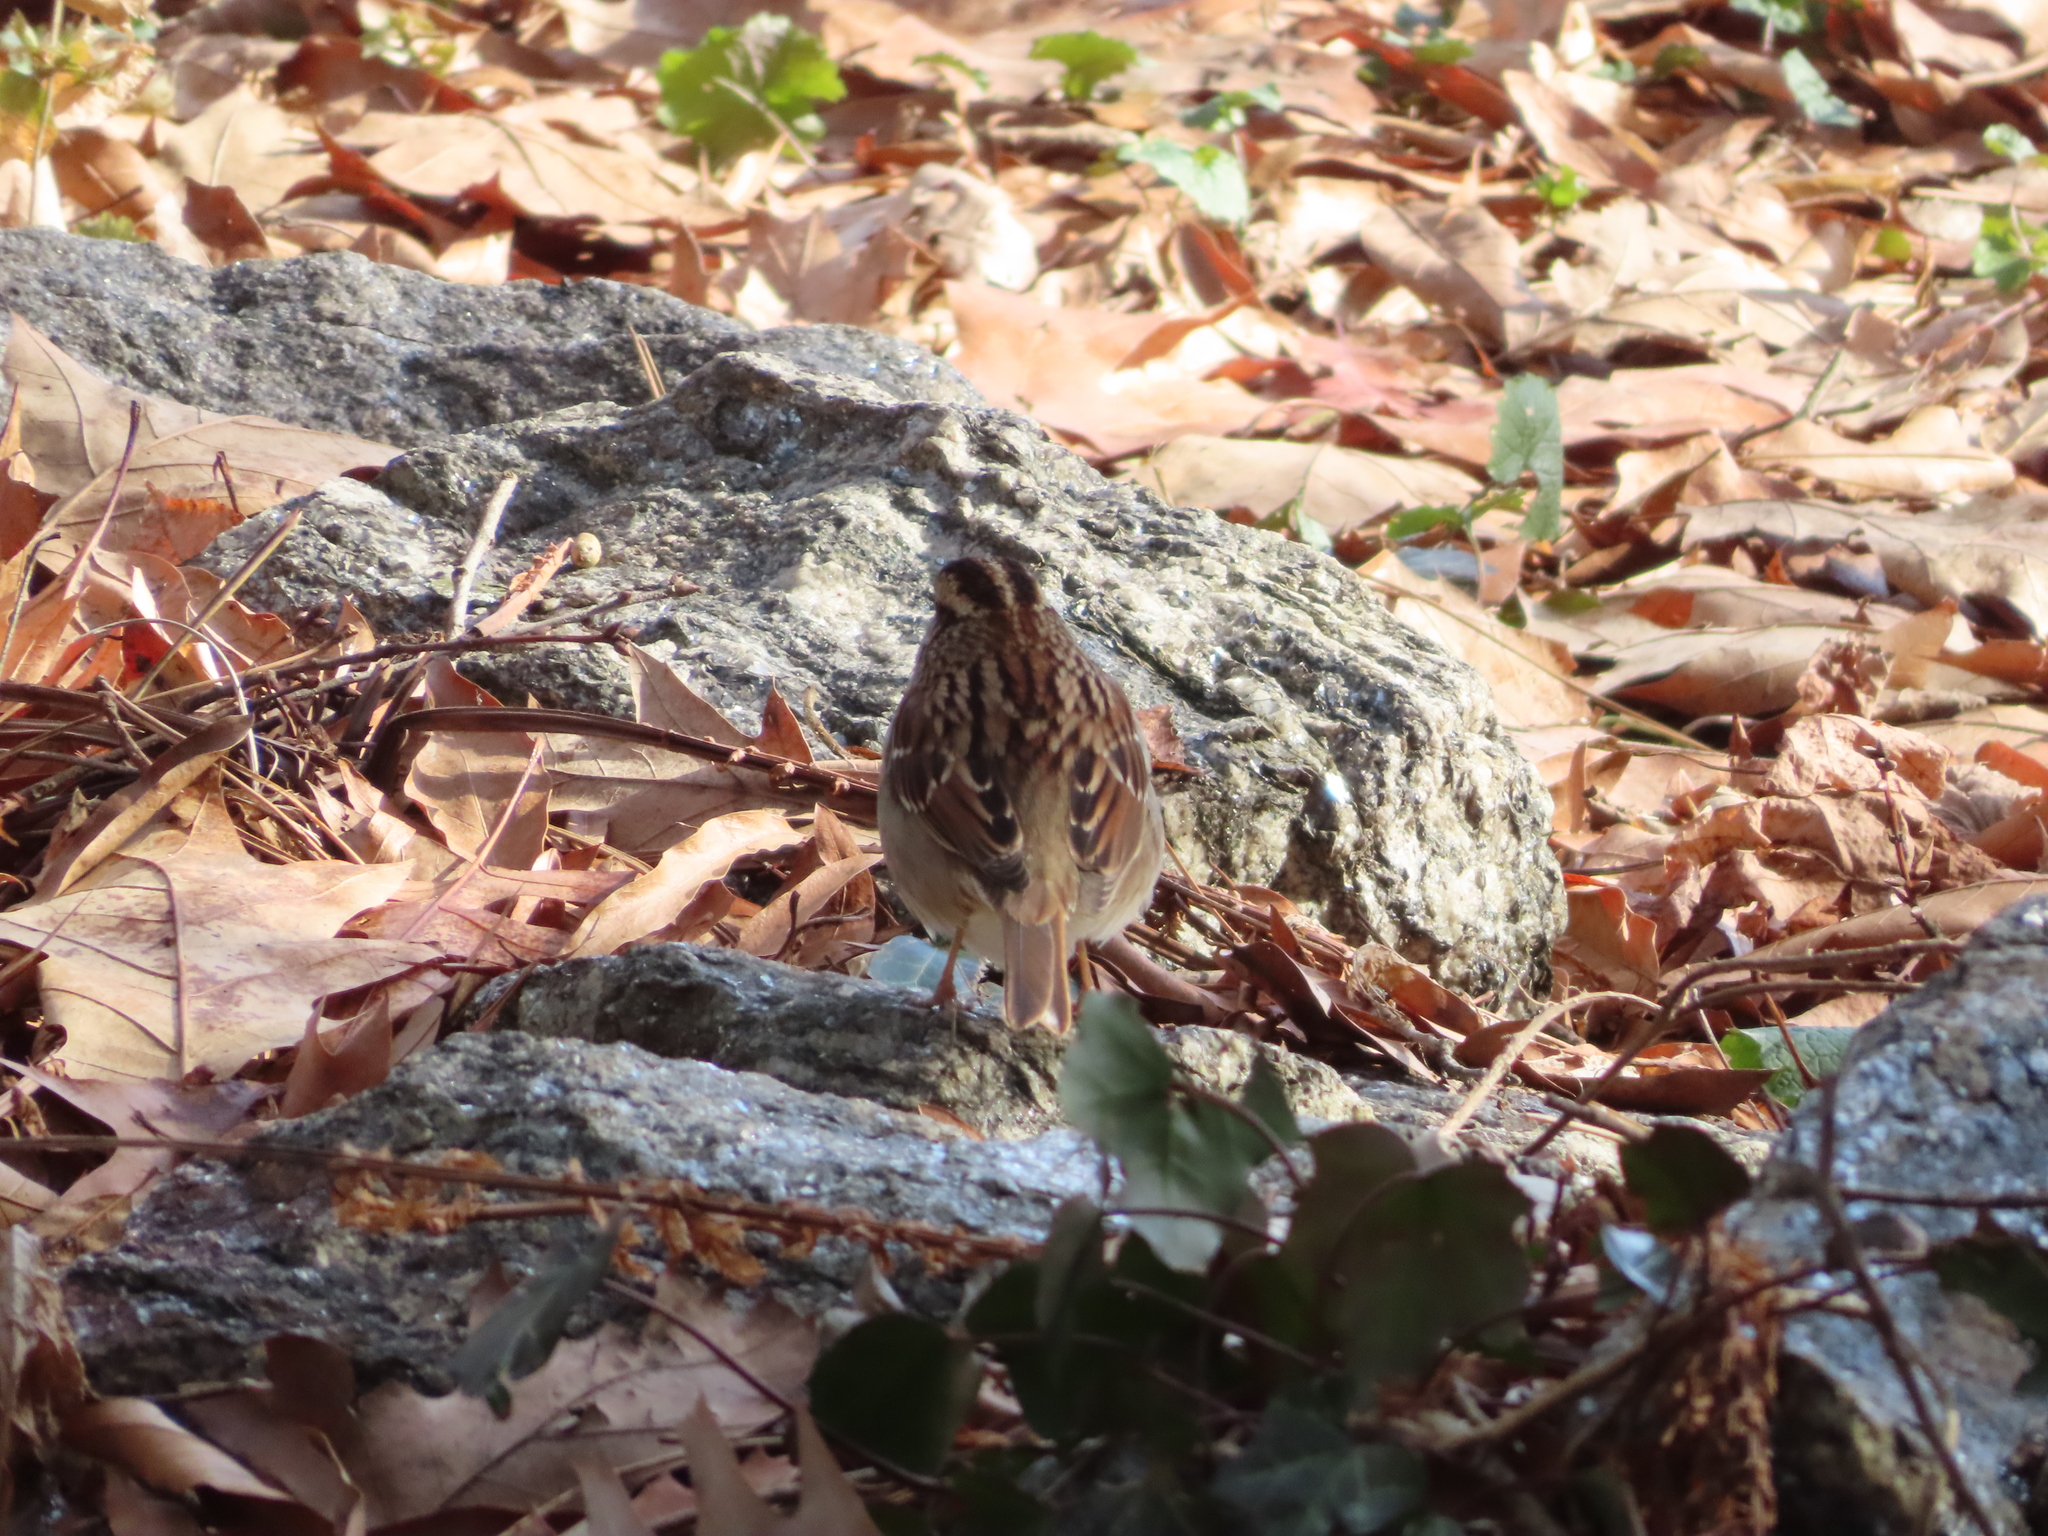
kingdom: Animalia
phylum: Chordata
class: Aves
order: Passeriformes
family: Passerellidae
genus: Zonotrichia
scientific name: Zonotrichia albicollis
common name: White-throated sparrow
